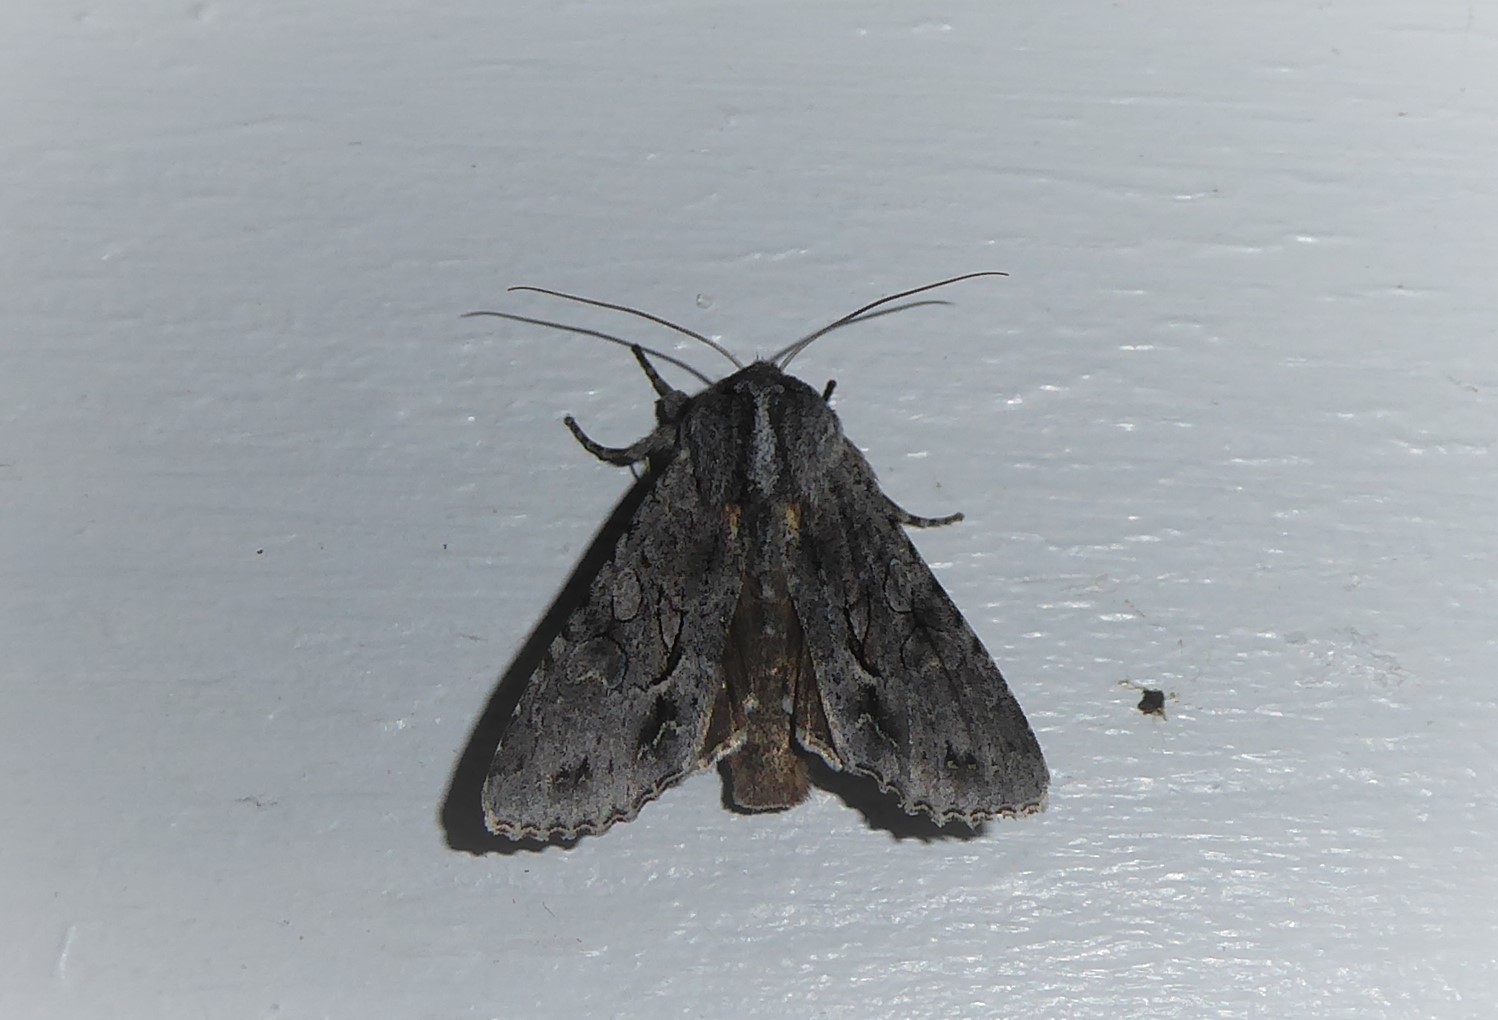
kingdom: Animalia
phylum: Arthropoda
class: Insecta
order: Lepidoptera
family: Noctuidae
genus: Ichneutica
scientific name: Ichneutica
